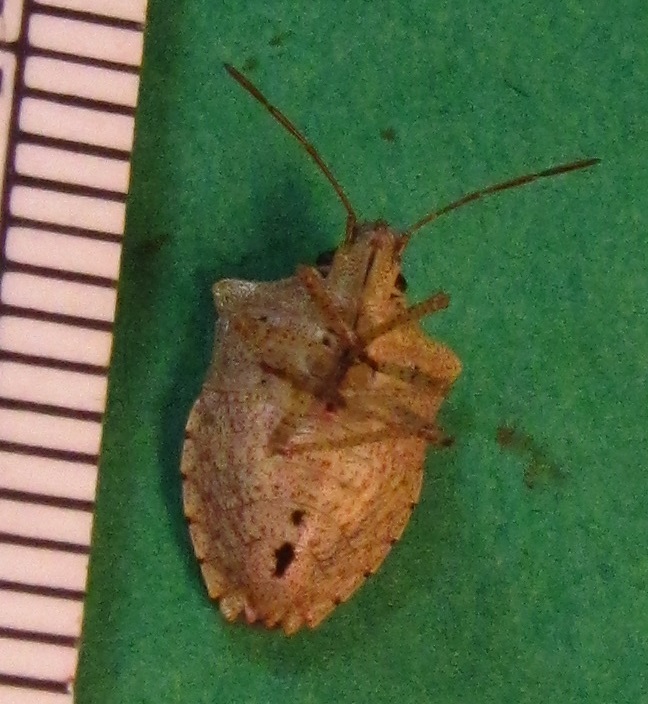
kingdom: Animalia
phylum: Arthropoda
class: Insecta
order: Hemiptera
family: Pentatomidae
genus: Euschistus
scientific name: Euschistus tristigmus
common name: Dusky stink bug
